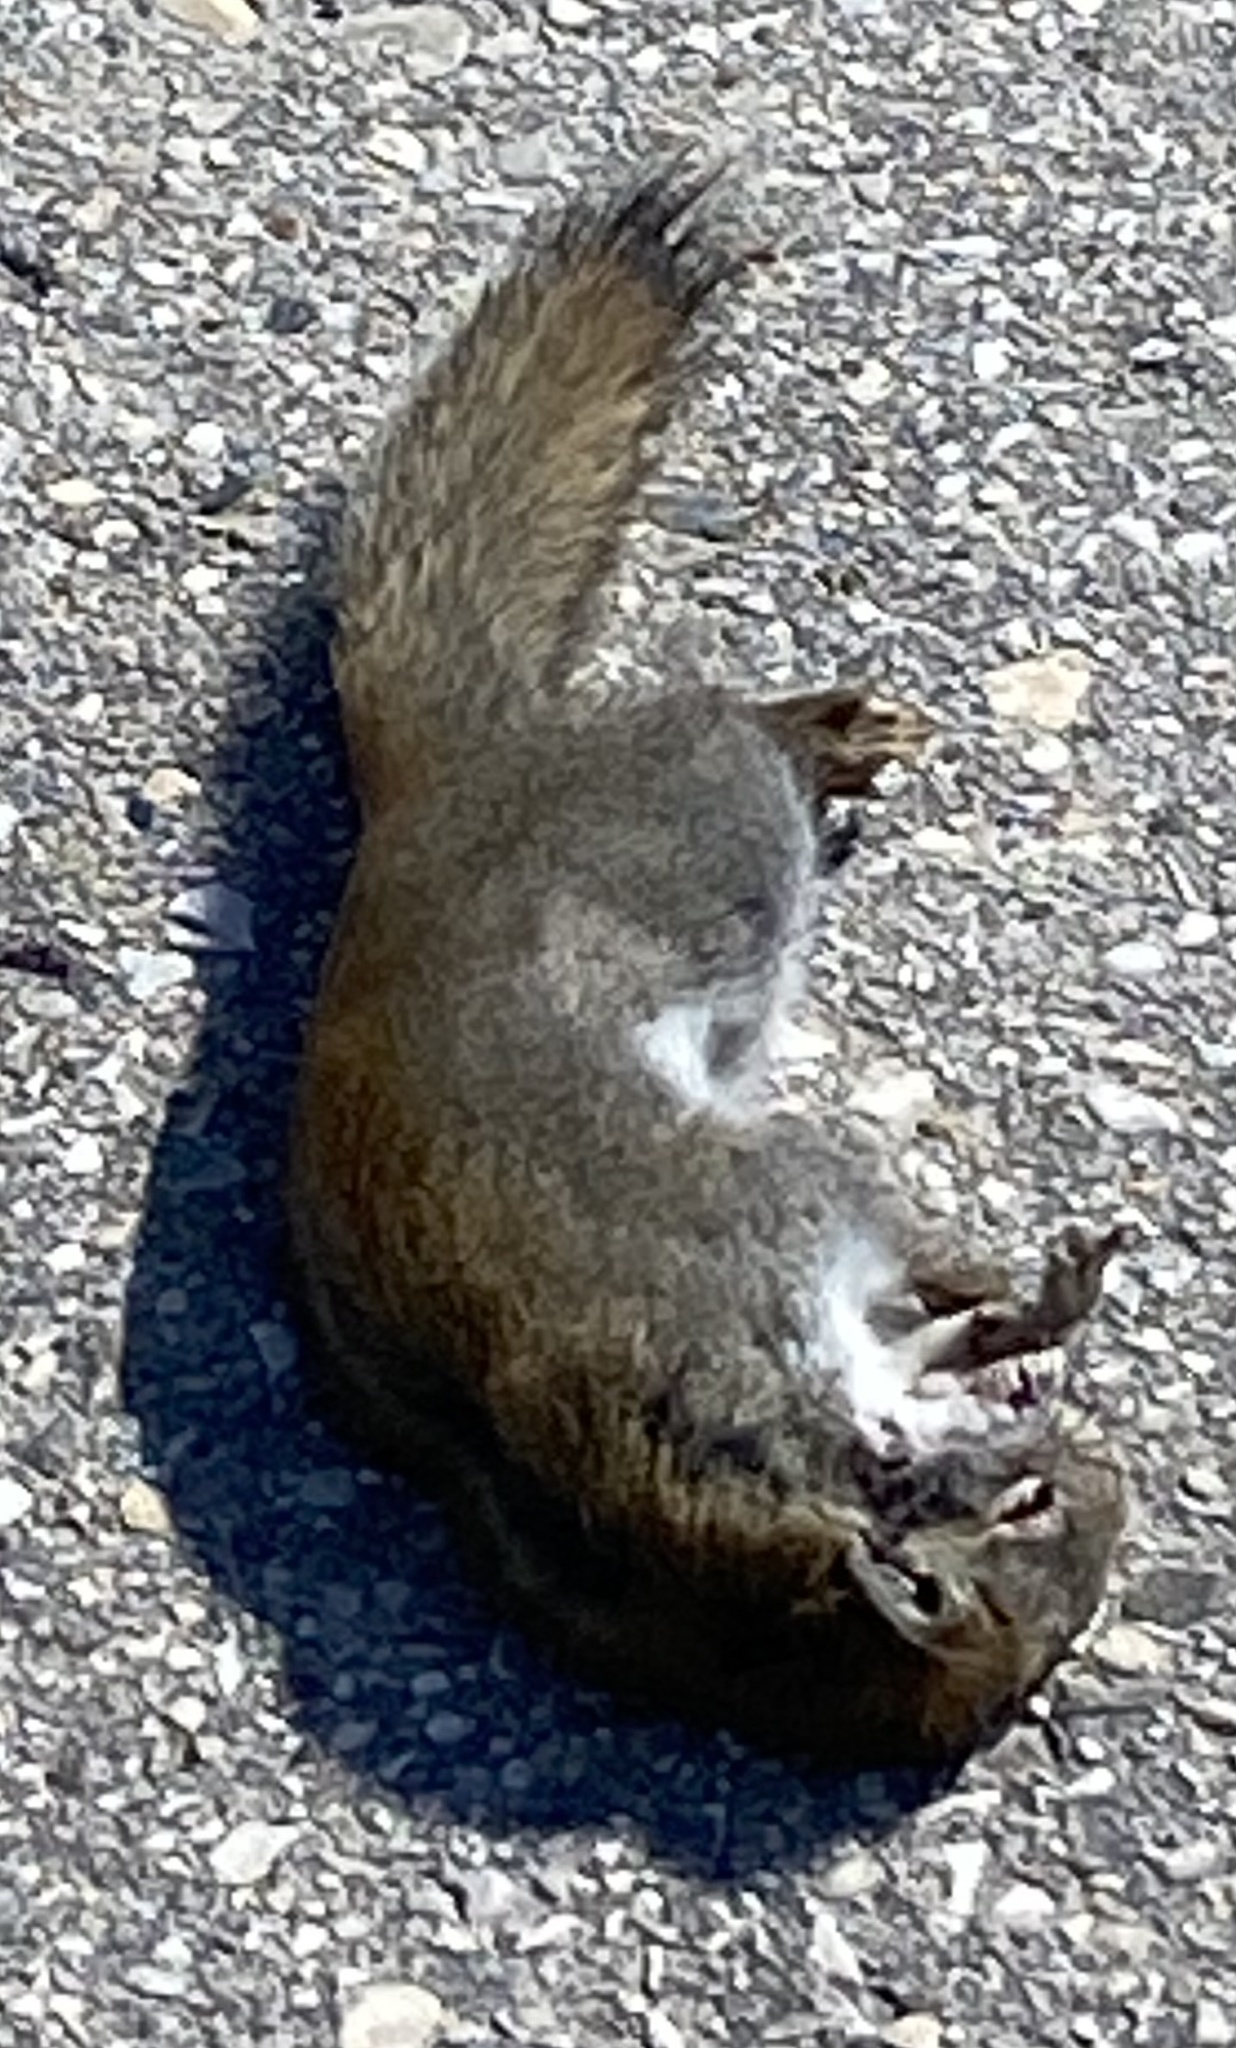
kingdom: Animalia
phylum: Chordata
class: Mammalia
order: Rodentia
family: Sciuridae
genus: Tamiasciurus
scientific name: Tamiasciurus hudsonicus
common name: Red squirrel
